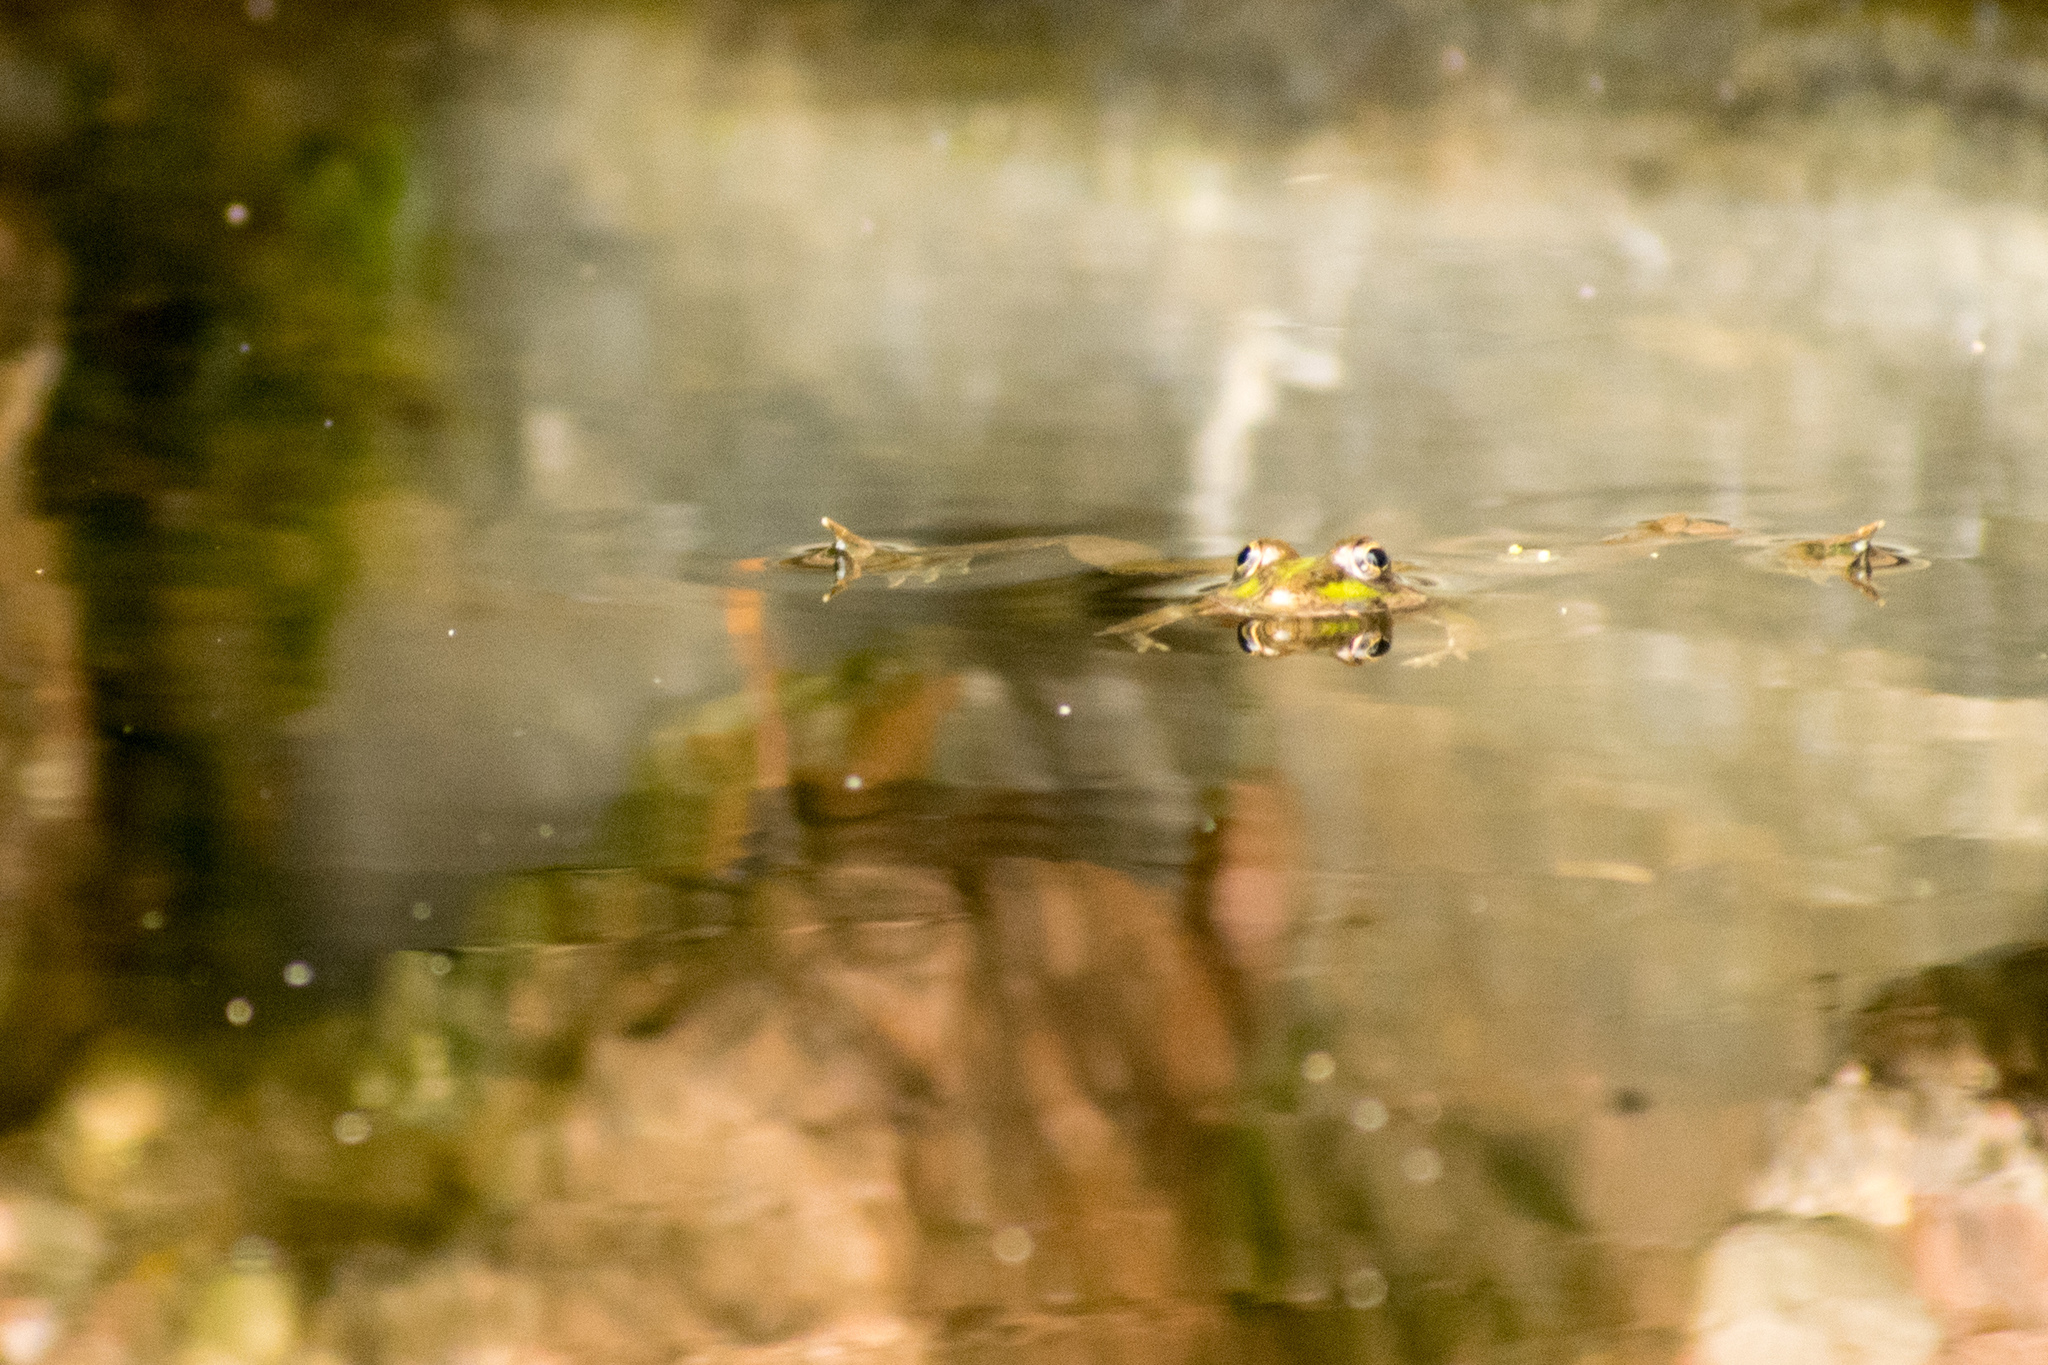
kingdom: Animalia
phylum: Chordata
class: Amphibia
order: Anura
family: Ranidae
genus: Pelophylax
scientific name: Pelophylax perezi
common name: Perez's frog
